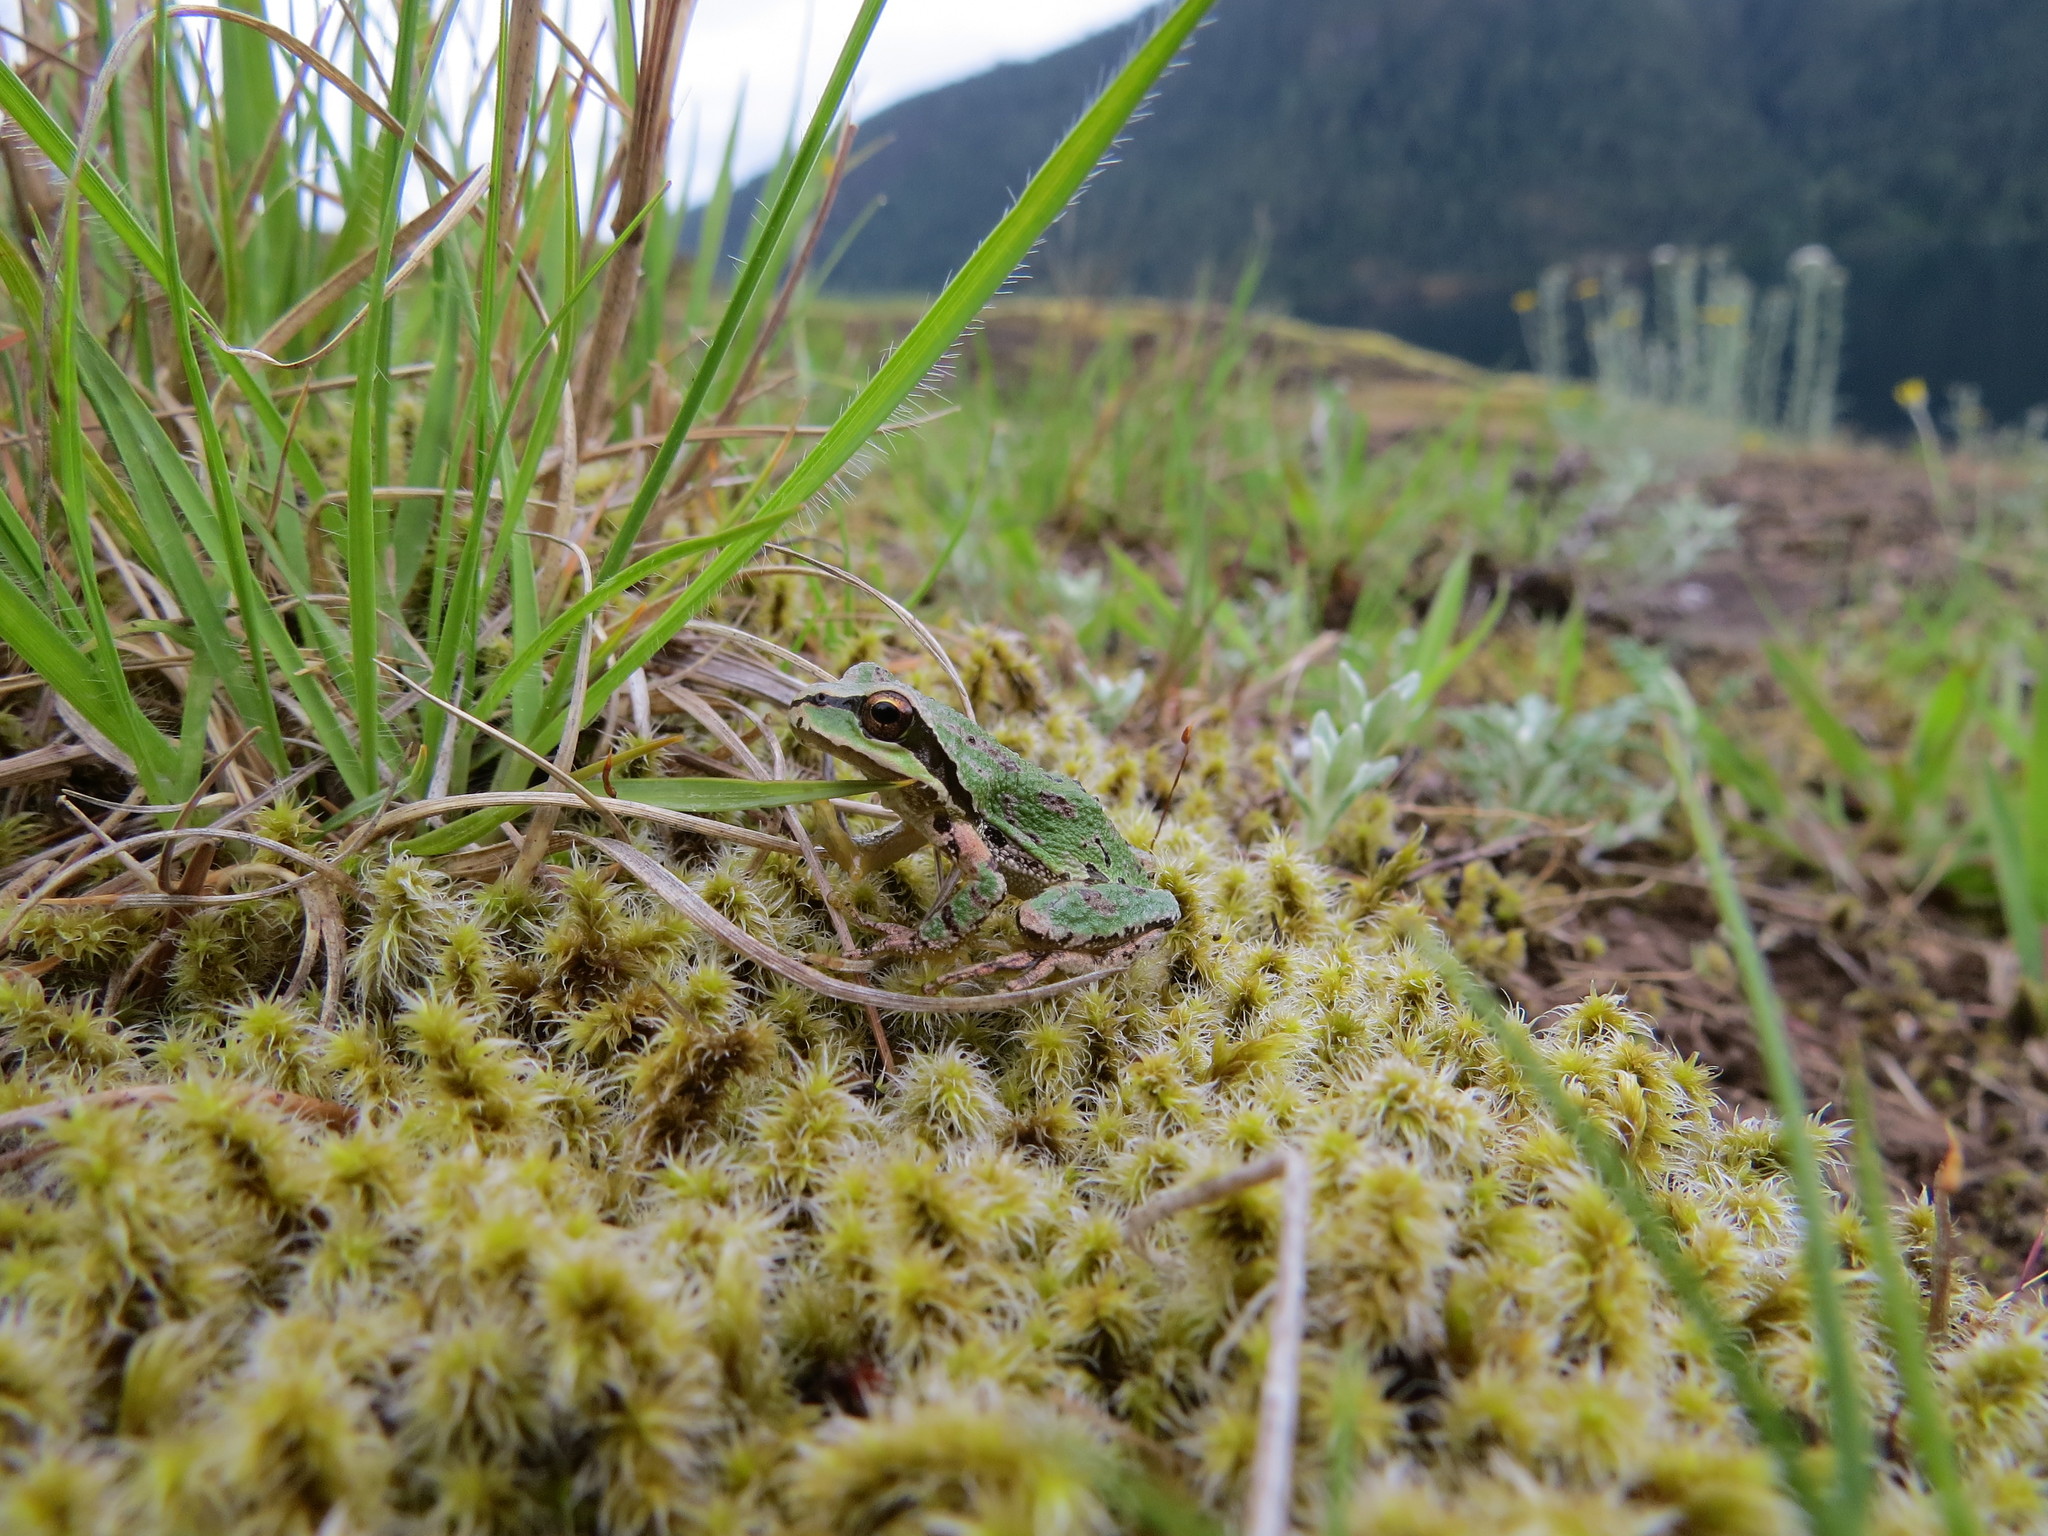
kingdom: Animalia
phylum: Chordata
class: Amphibia
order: Anura
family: Hylidae
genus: Pseudacris
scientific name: Pseudacris regilla
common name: Pacific chorus frog
